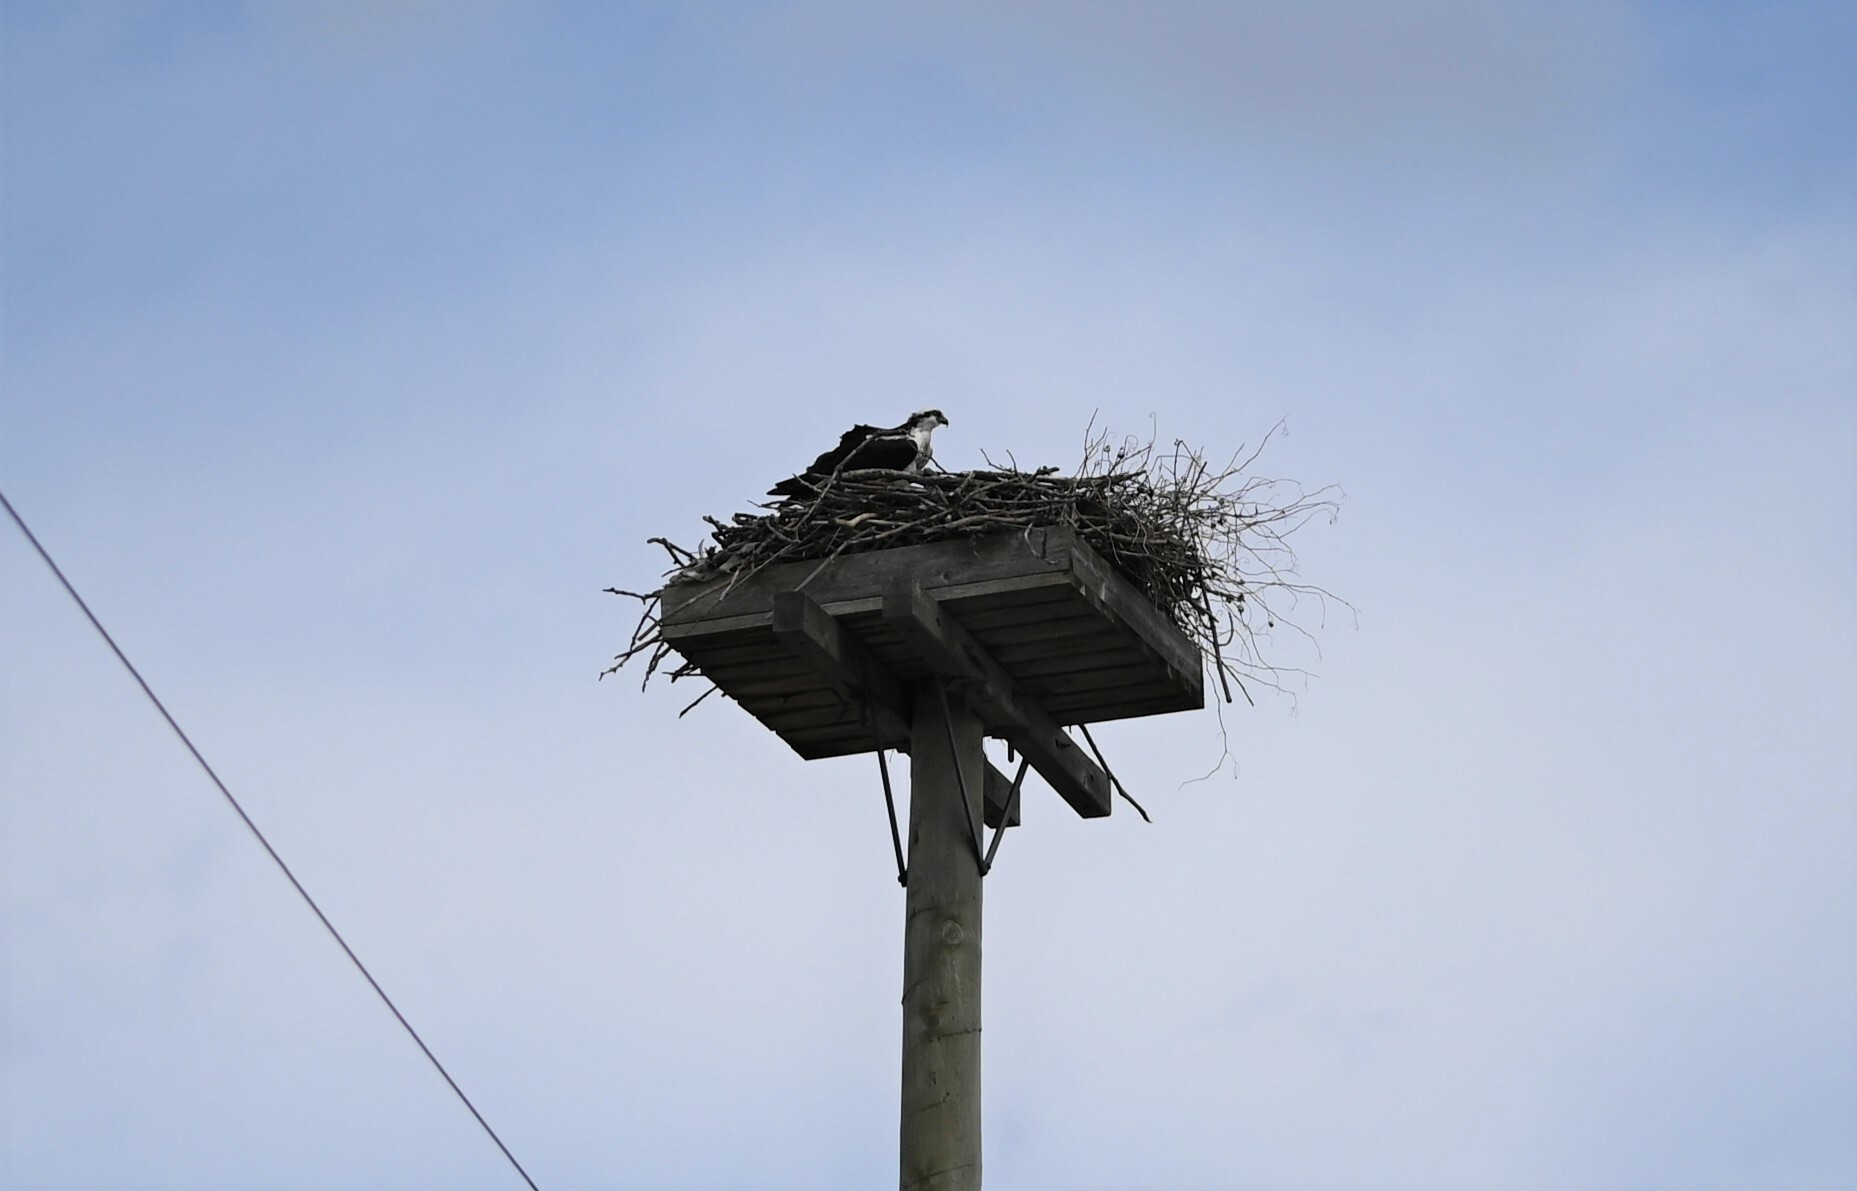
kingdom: Animalia
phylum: Chordata
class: Aves
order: Accipitriformes
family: Pandionidae
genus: Pandion
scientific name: Pandion haliaetus
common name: Osprey
